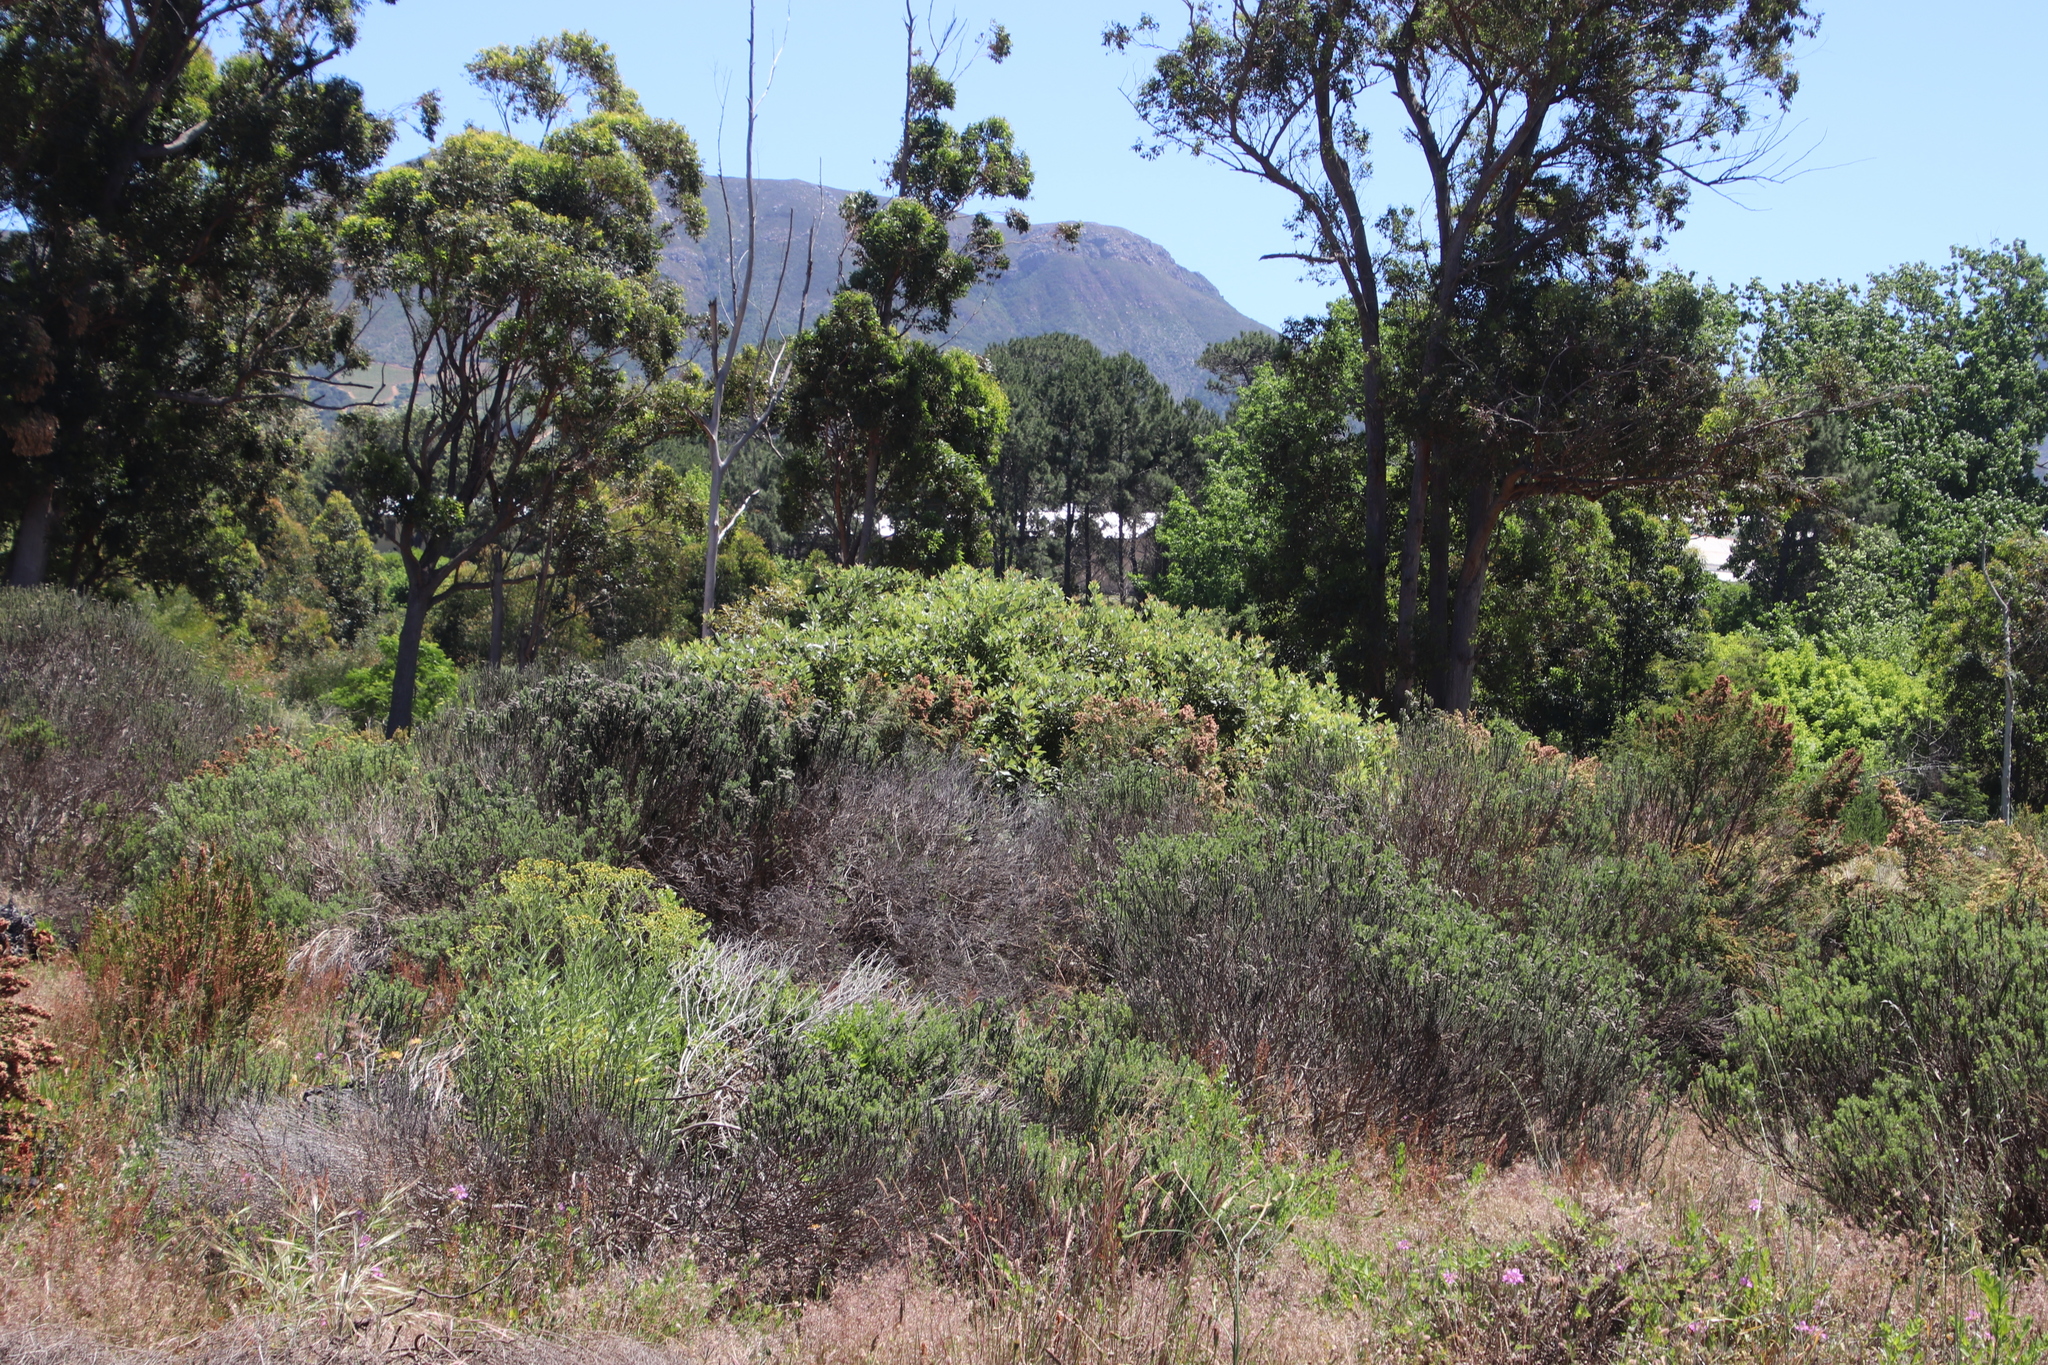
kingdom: Plantae
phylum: Tracheophyta
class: Magnoliopsida
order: Sapindales
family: Anacardiaceae
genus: Searsia
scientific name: Searsia tomentosa
